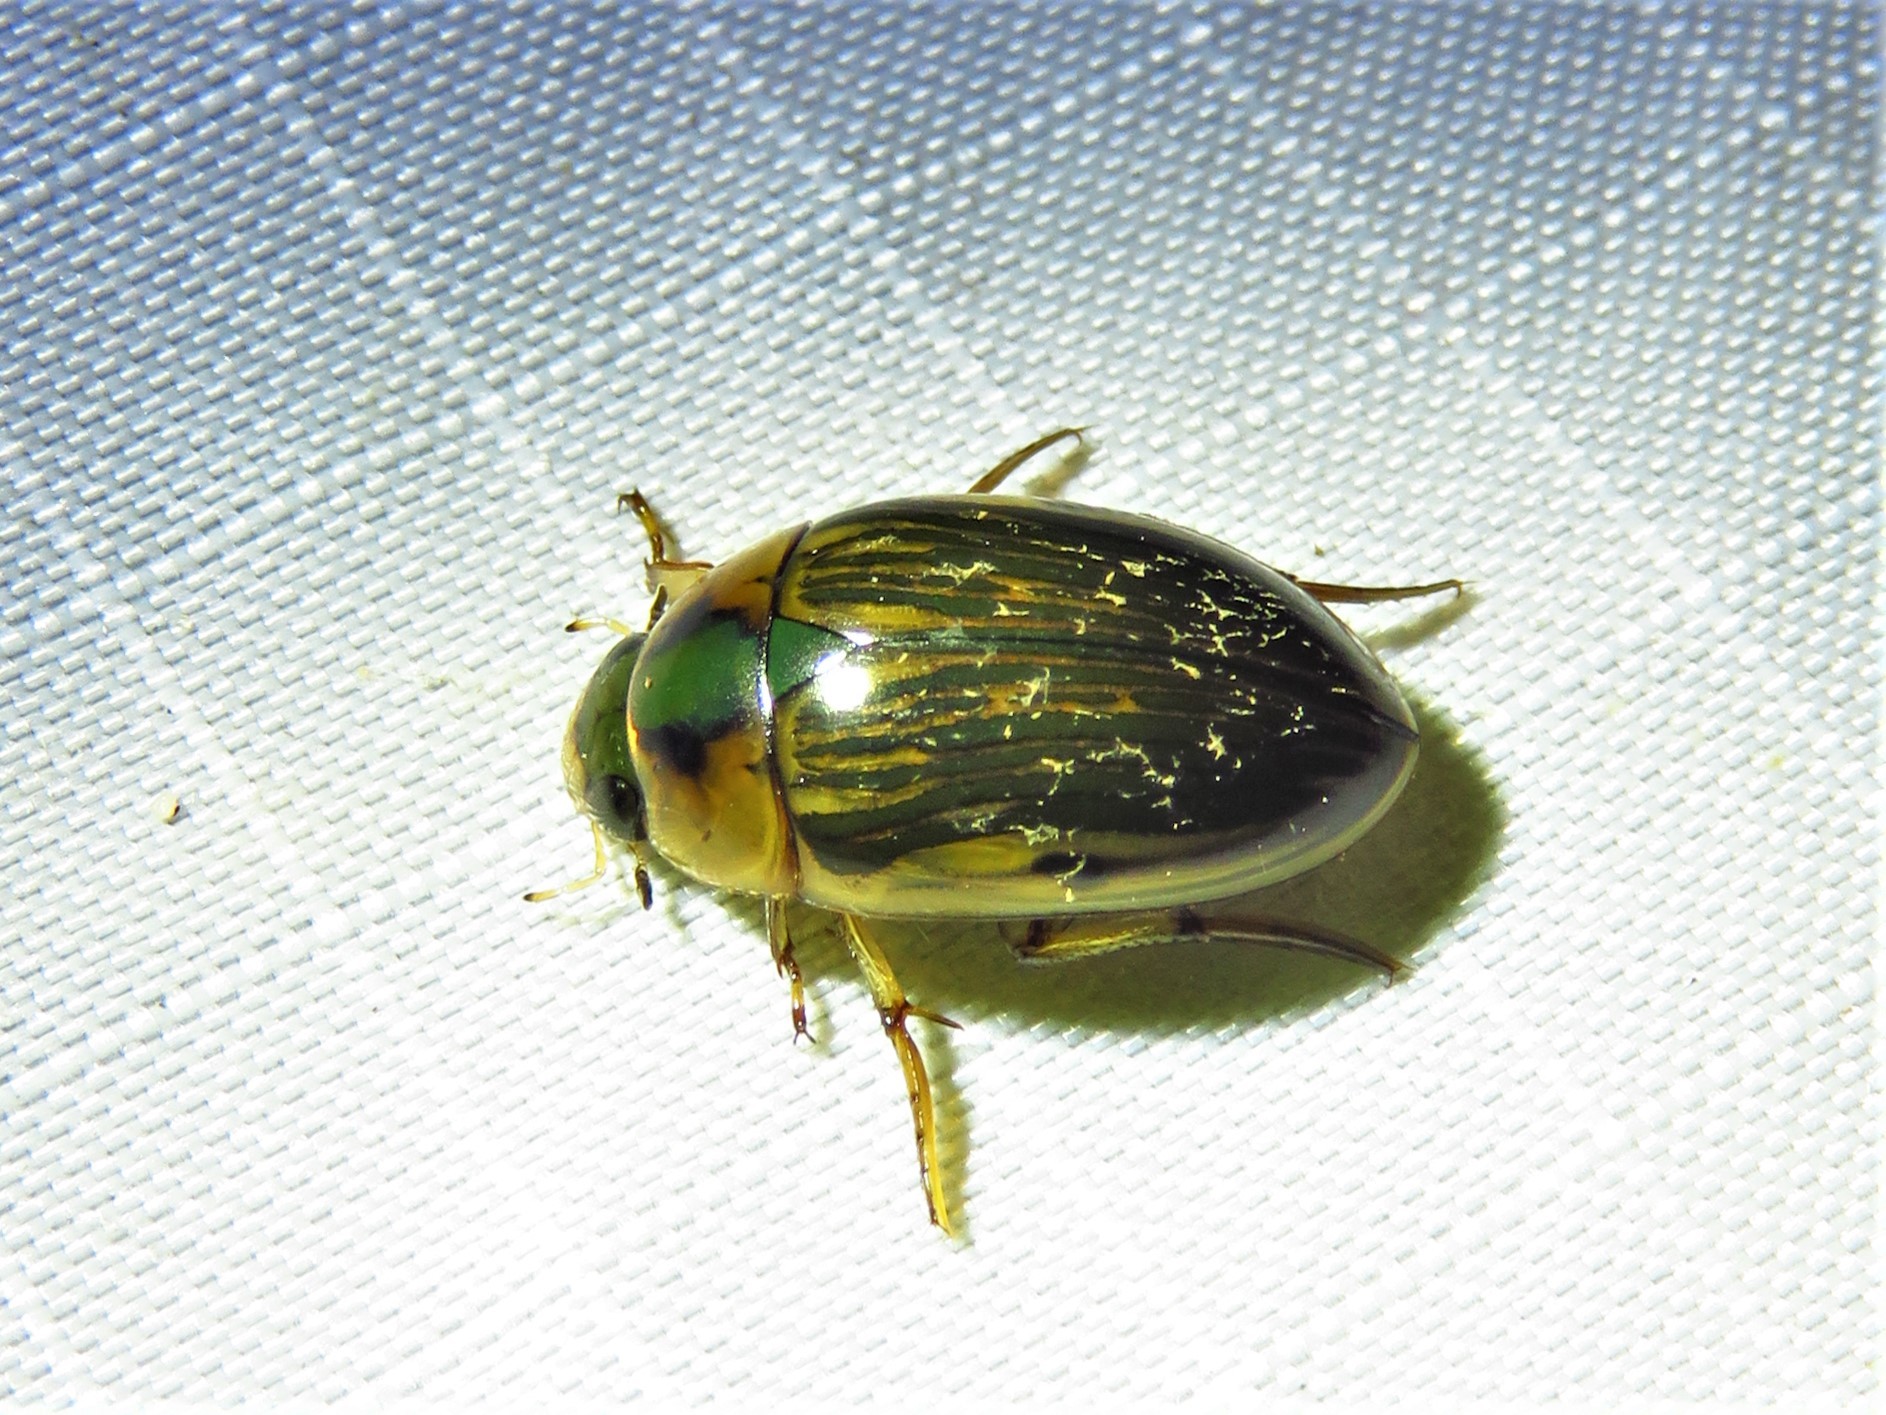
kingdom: Animalia
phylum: Arthropoda
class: Insecta
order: Coleoptera
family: Hydrophilidae
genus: Tropisternus
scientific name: Tropisternus collaris
